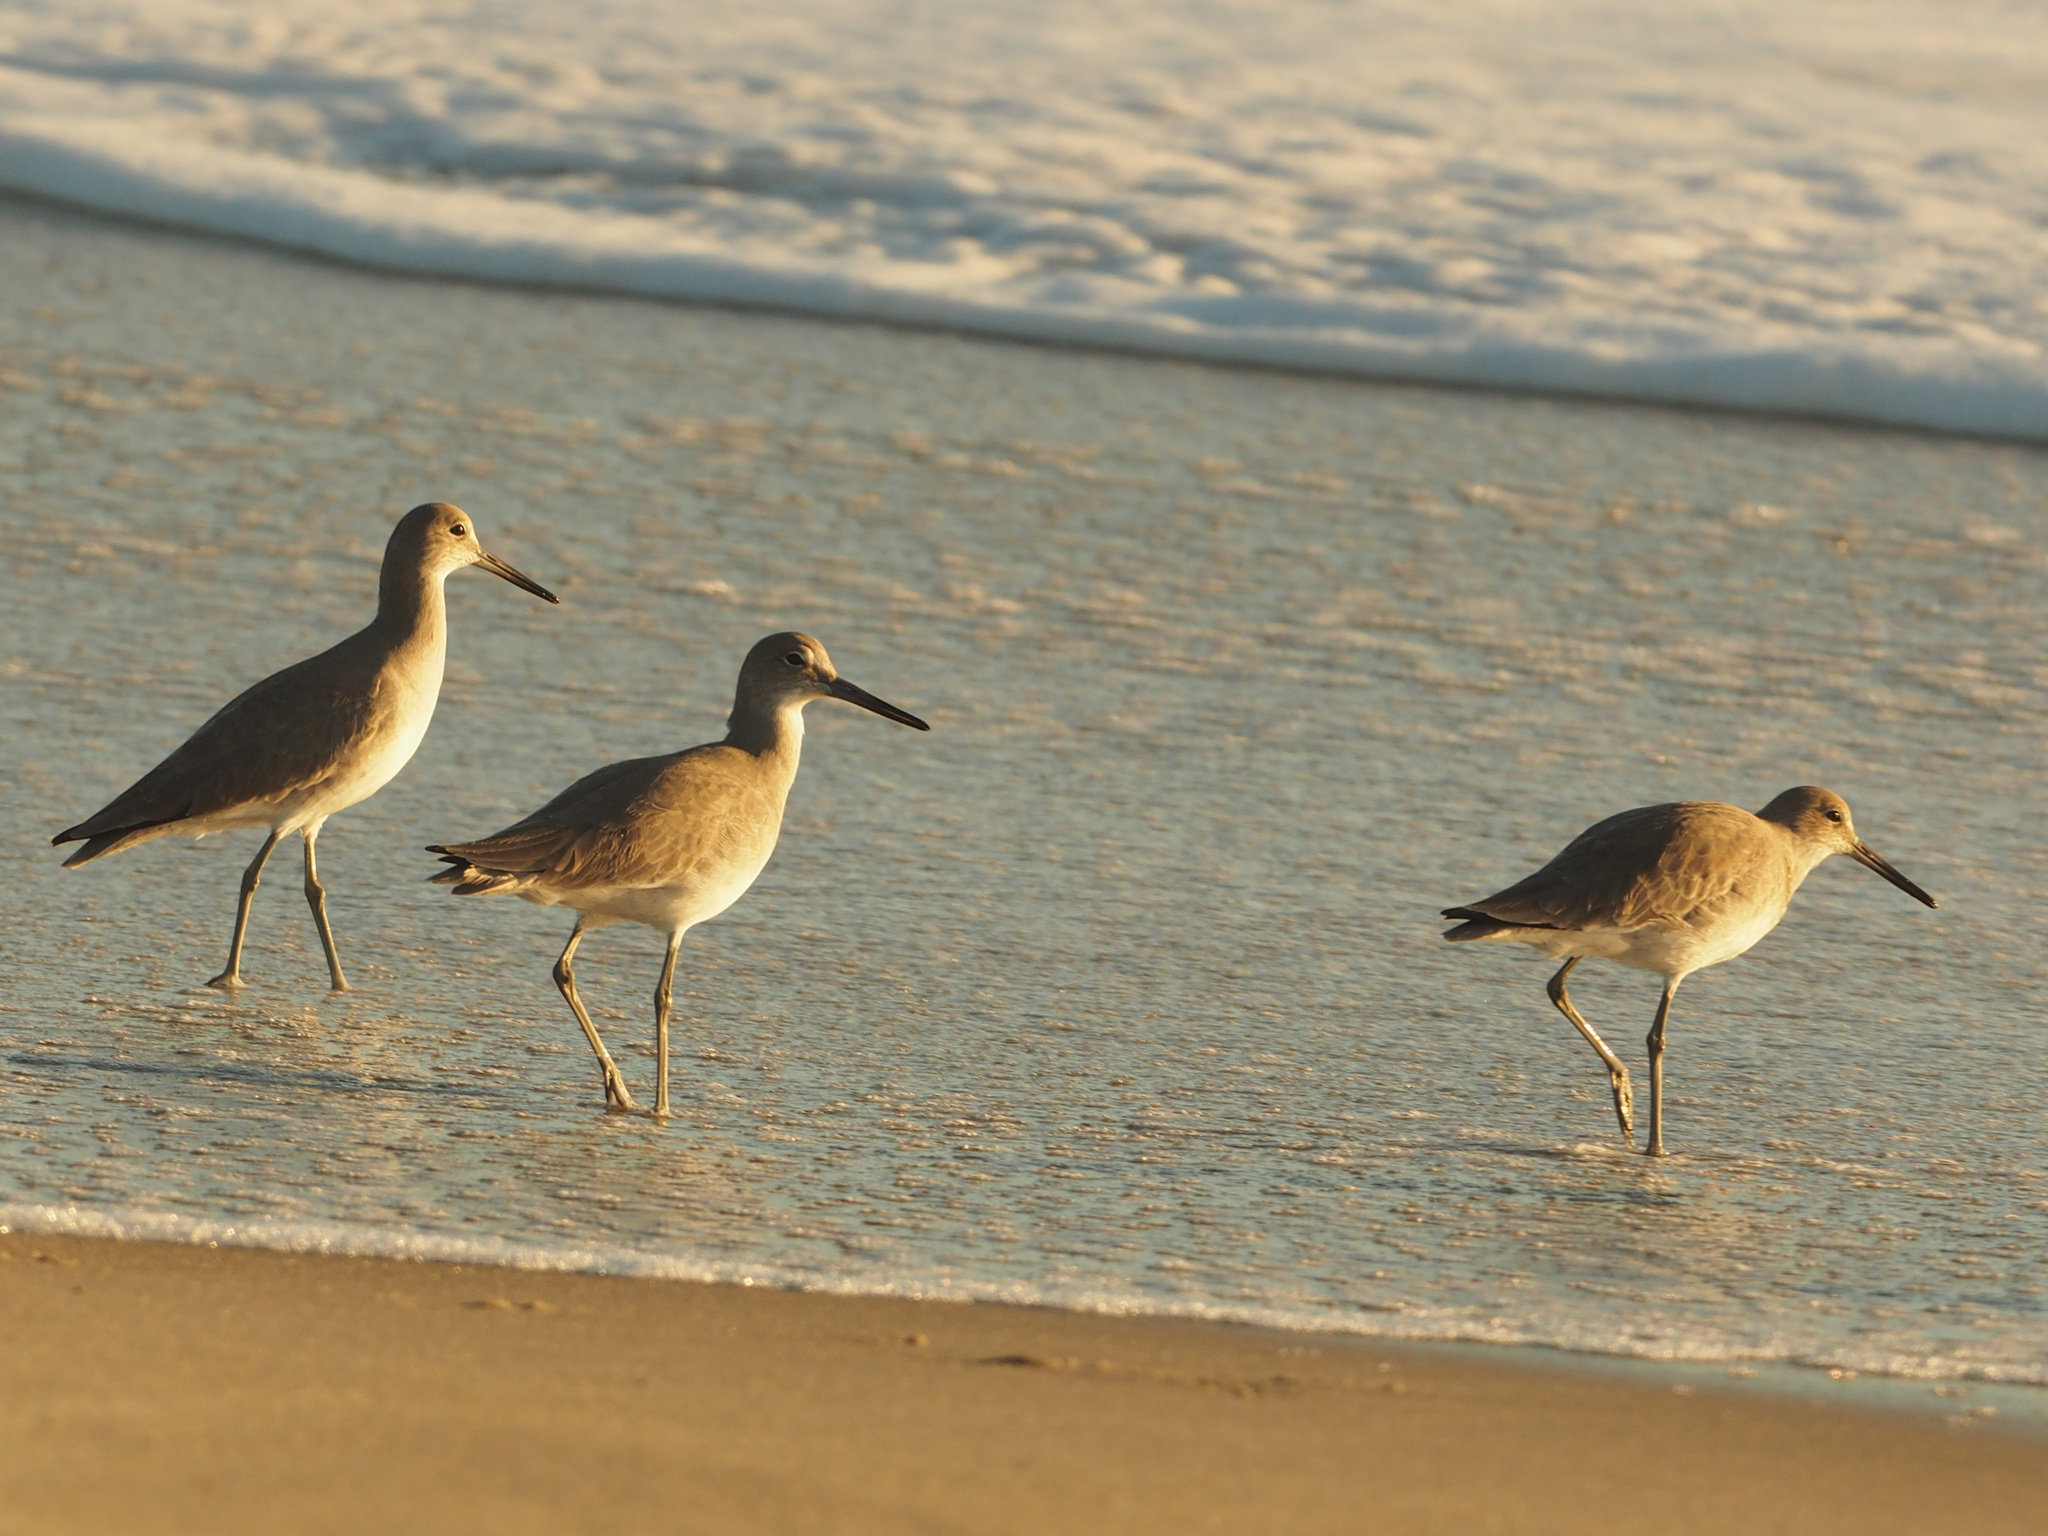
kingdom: Animalia
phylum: Chordata
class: Aves
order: Charadriiformes
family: Scolopacidae
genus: Tringa
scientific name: Tringa semipalmata
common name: Willet
